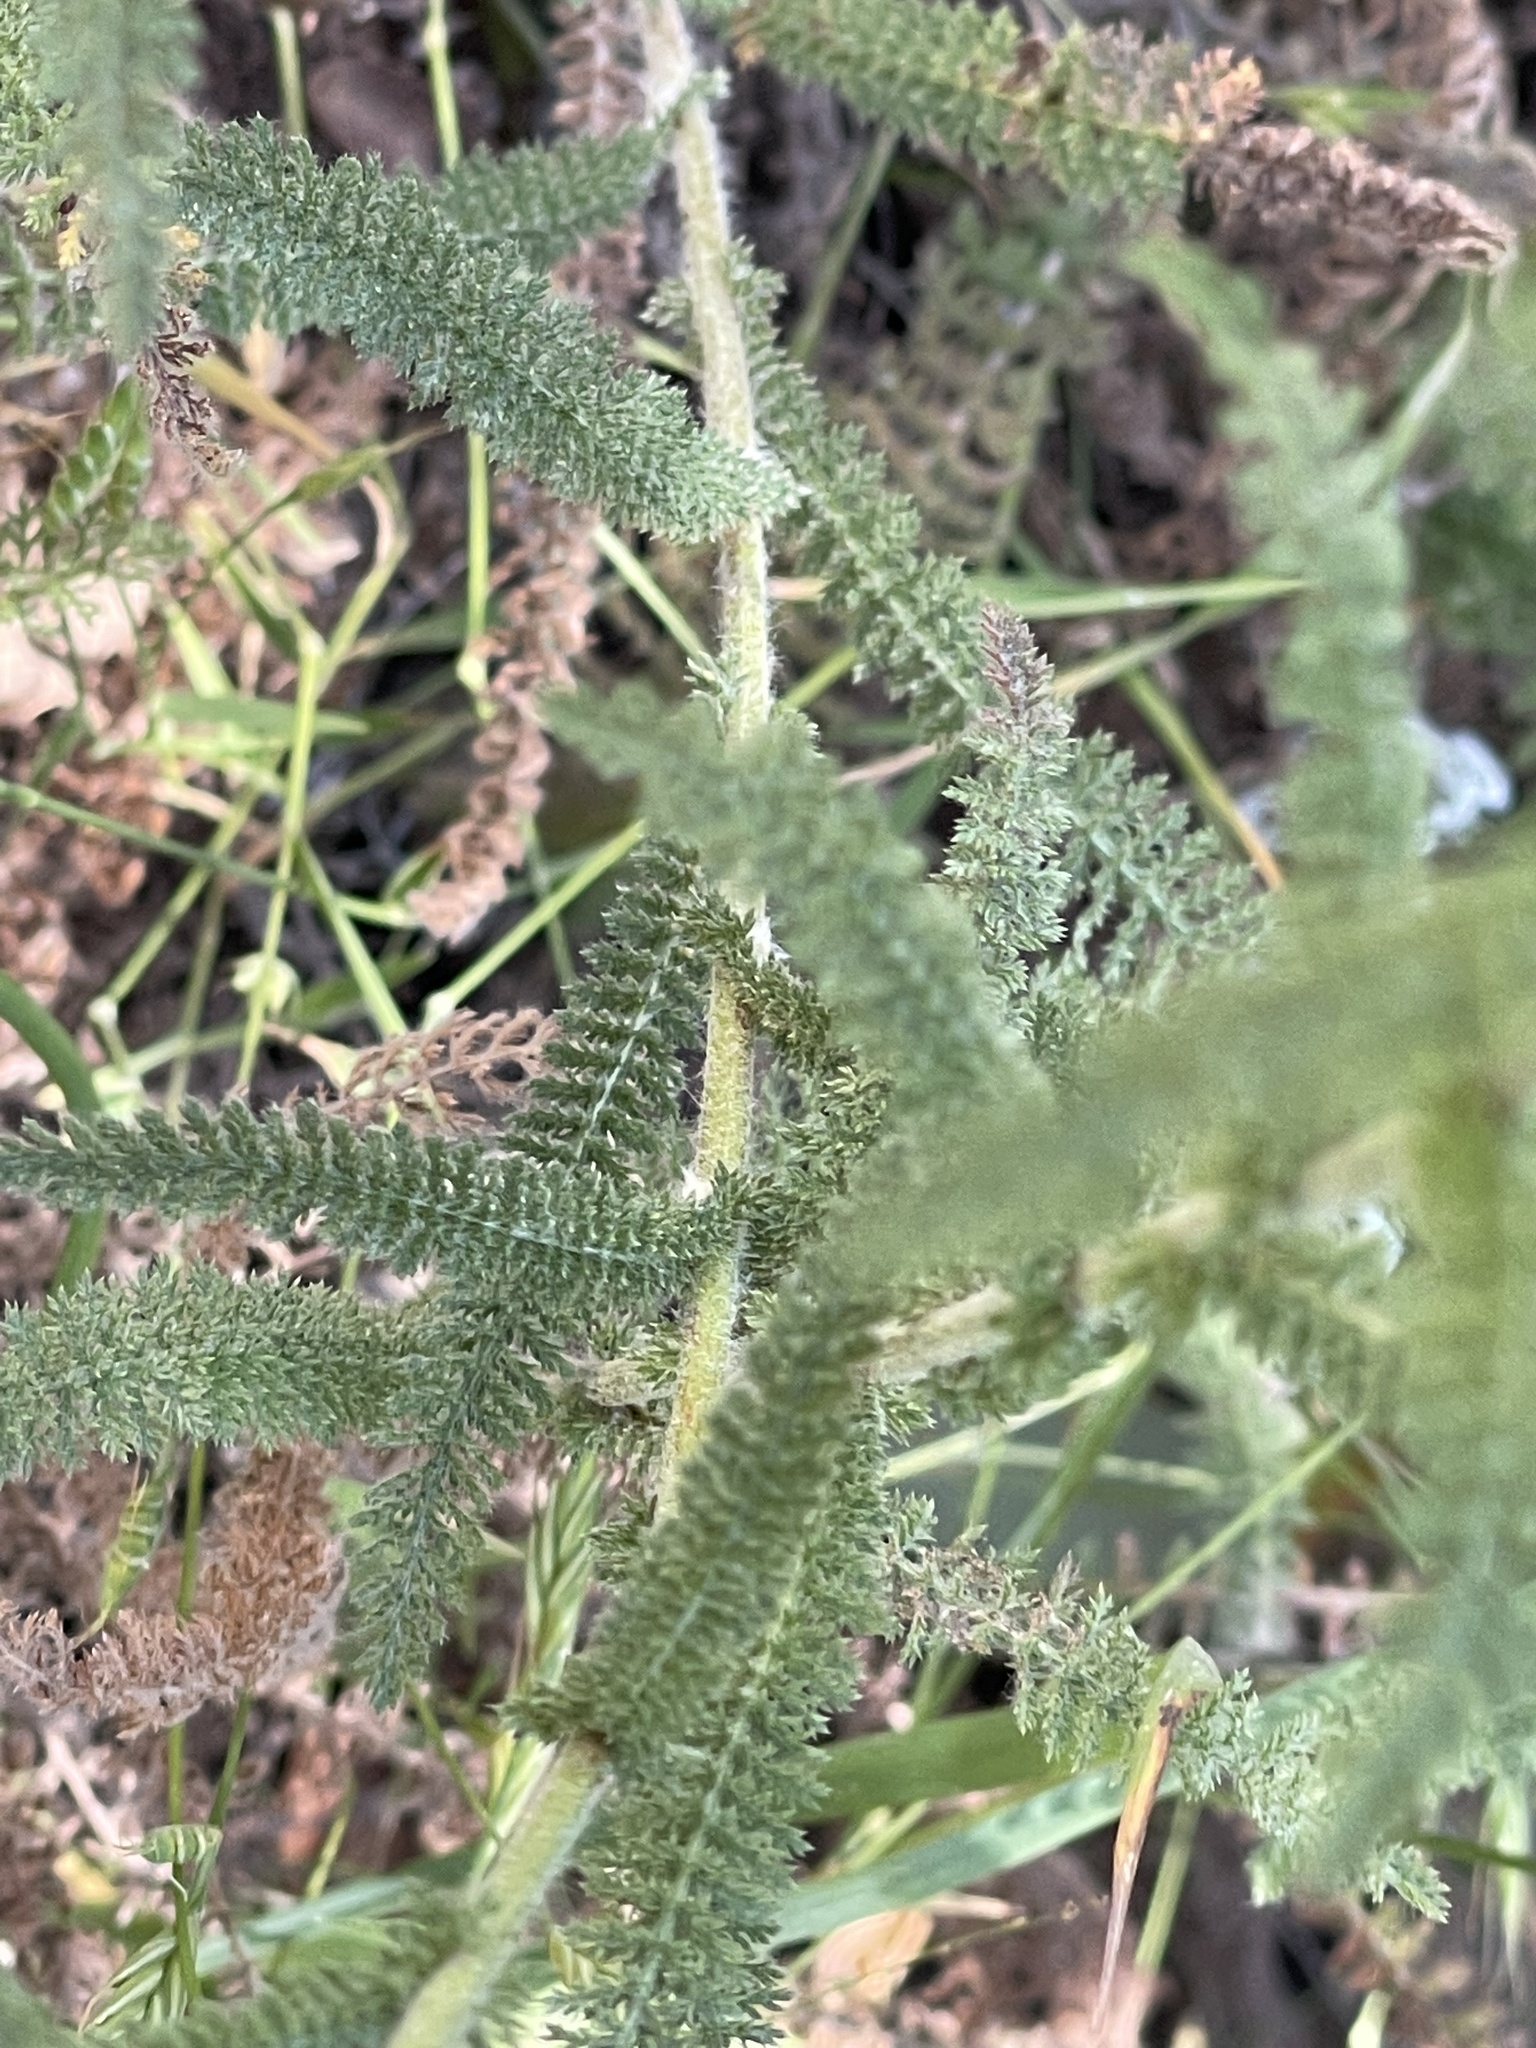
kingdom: Plantae
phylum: Tracheophyta
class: Magnoliopsida
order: Asterales
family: Asteraceae
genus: Achillea
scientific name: Achillea millefolium
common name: Yarrow
